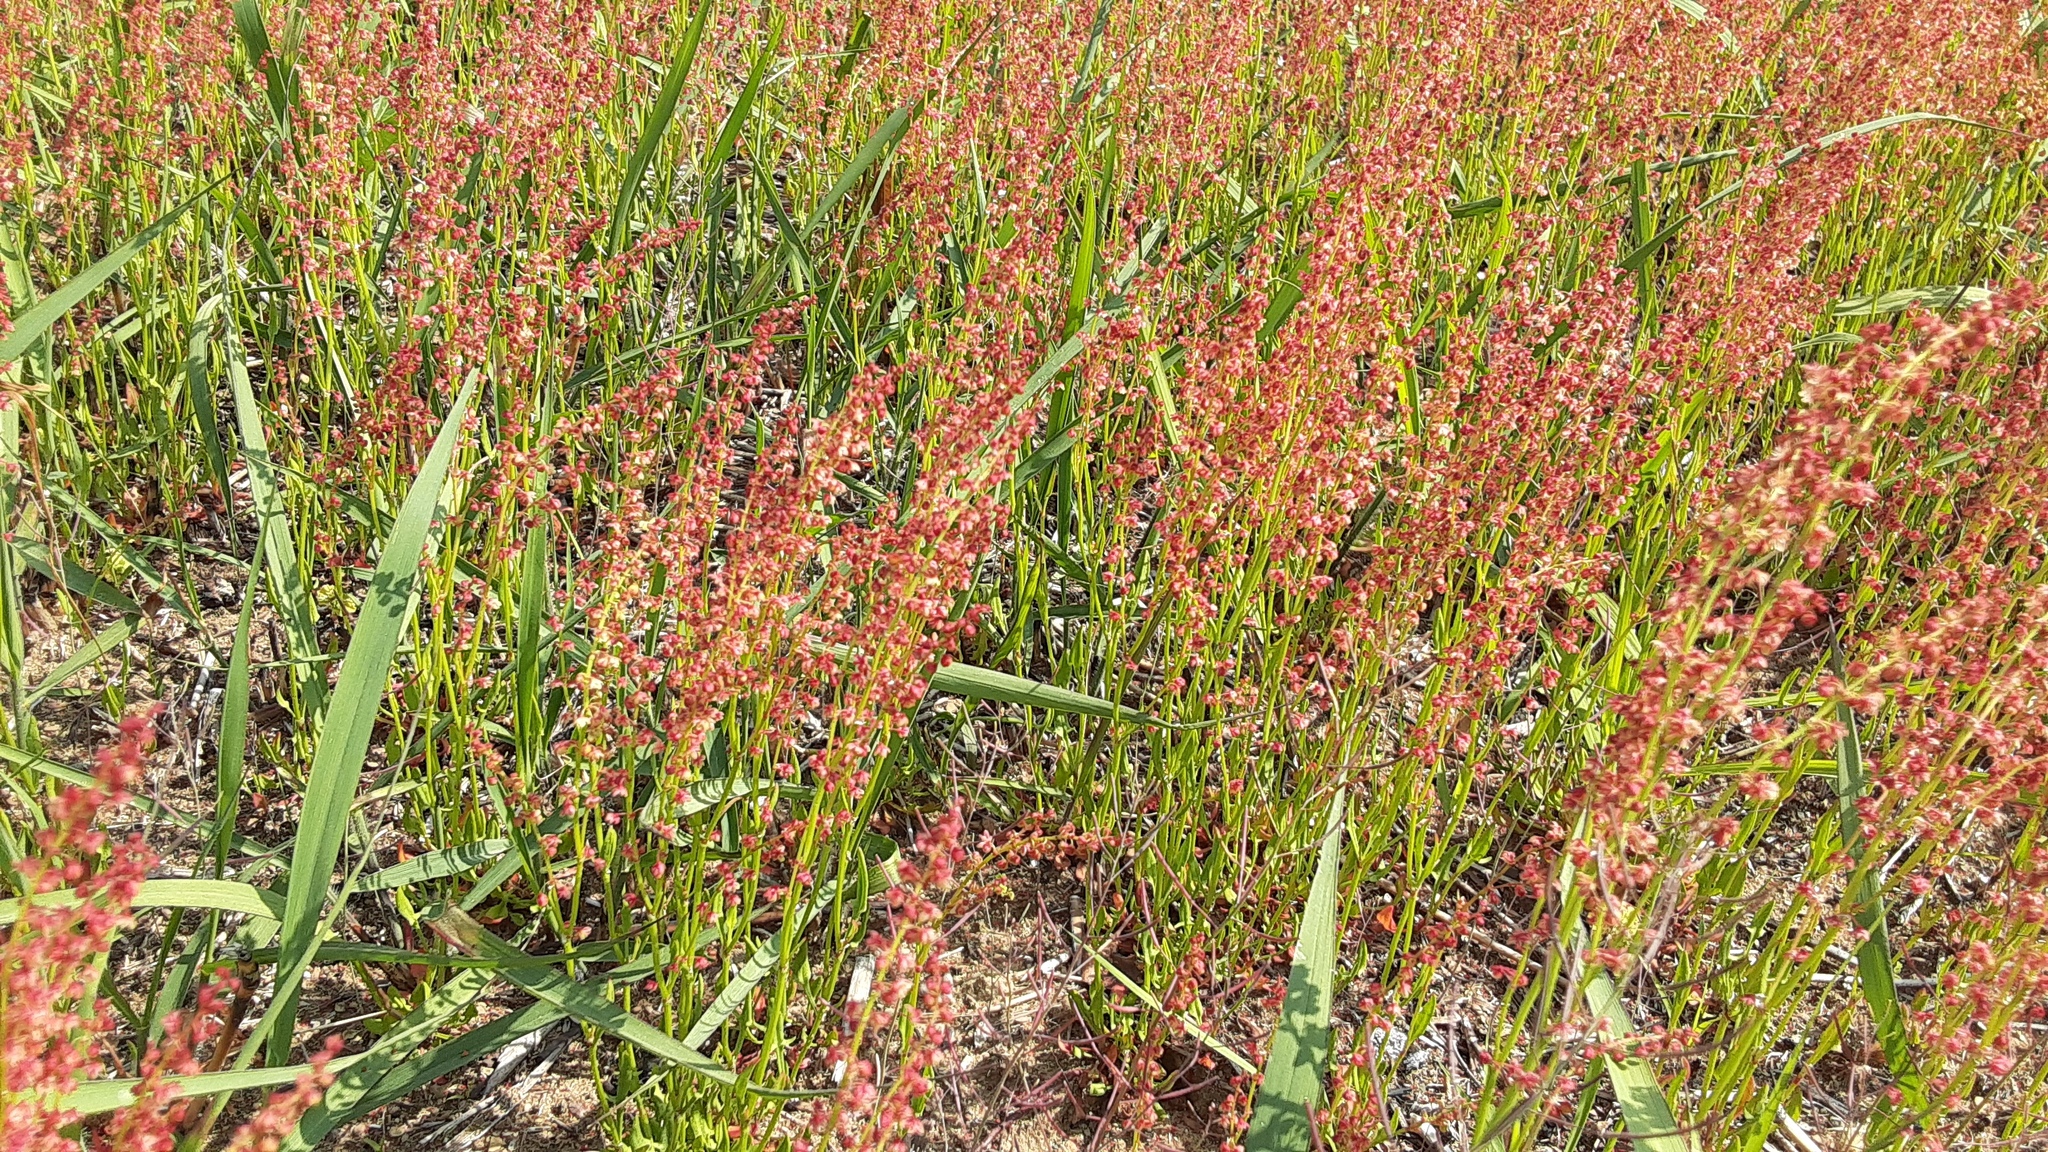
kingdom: Plantae
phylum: Tracheophyta
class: Magnoliopsida
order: Caryophyllales
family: Polygonaceae
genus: Rumex
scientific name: Rumex acetosella
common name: Common sheep sorrel
